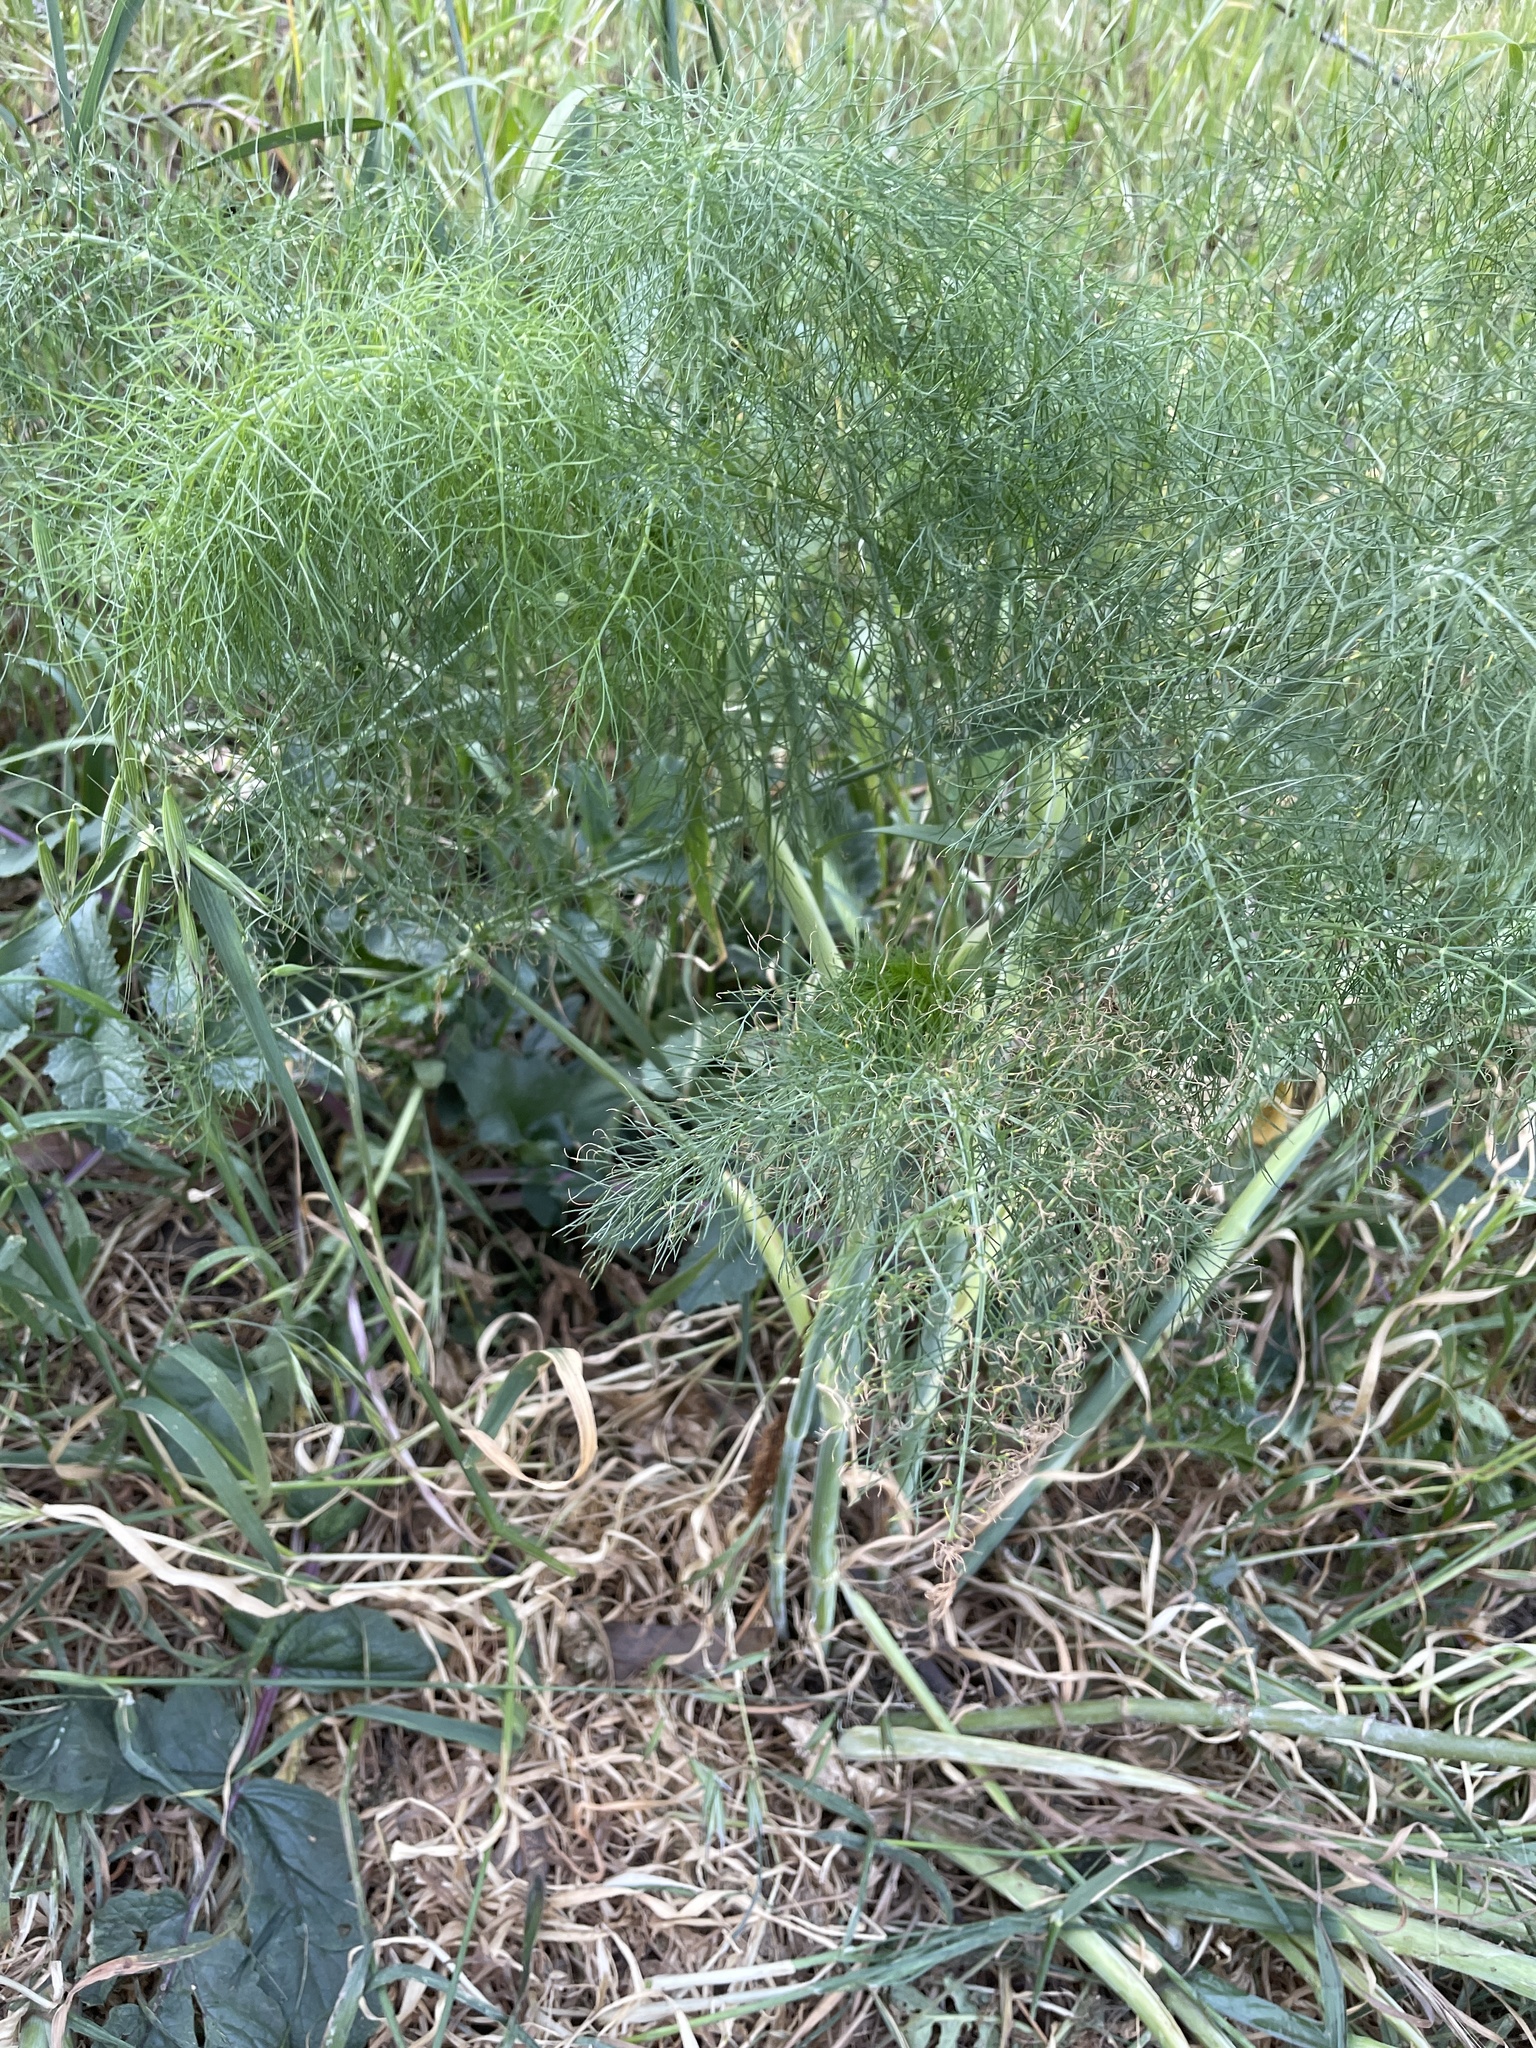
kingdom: Plantae
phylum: Tracheophyta
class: Magnoliopsida
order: Apiales
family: Apiaceae
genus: Foeniculum
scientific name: Foeniculum vulgare
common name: Fennel
